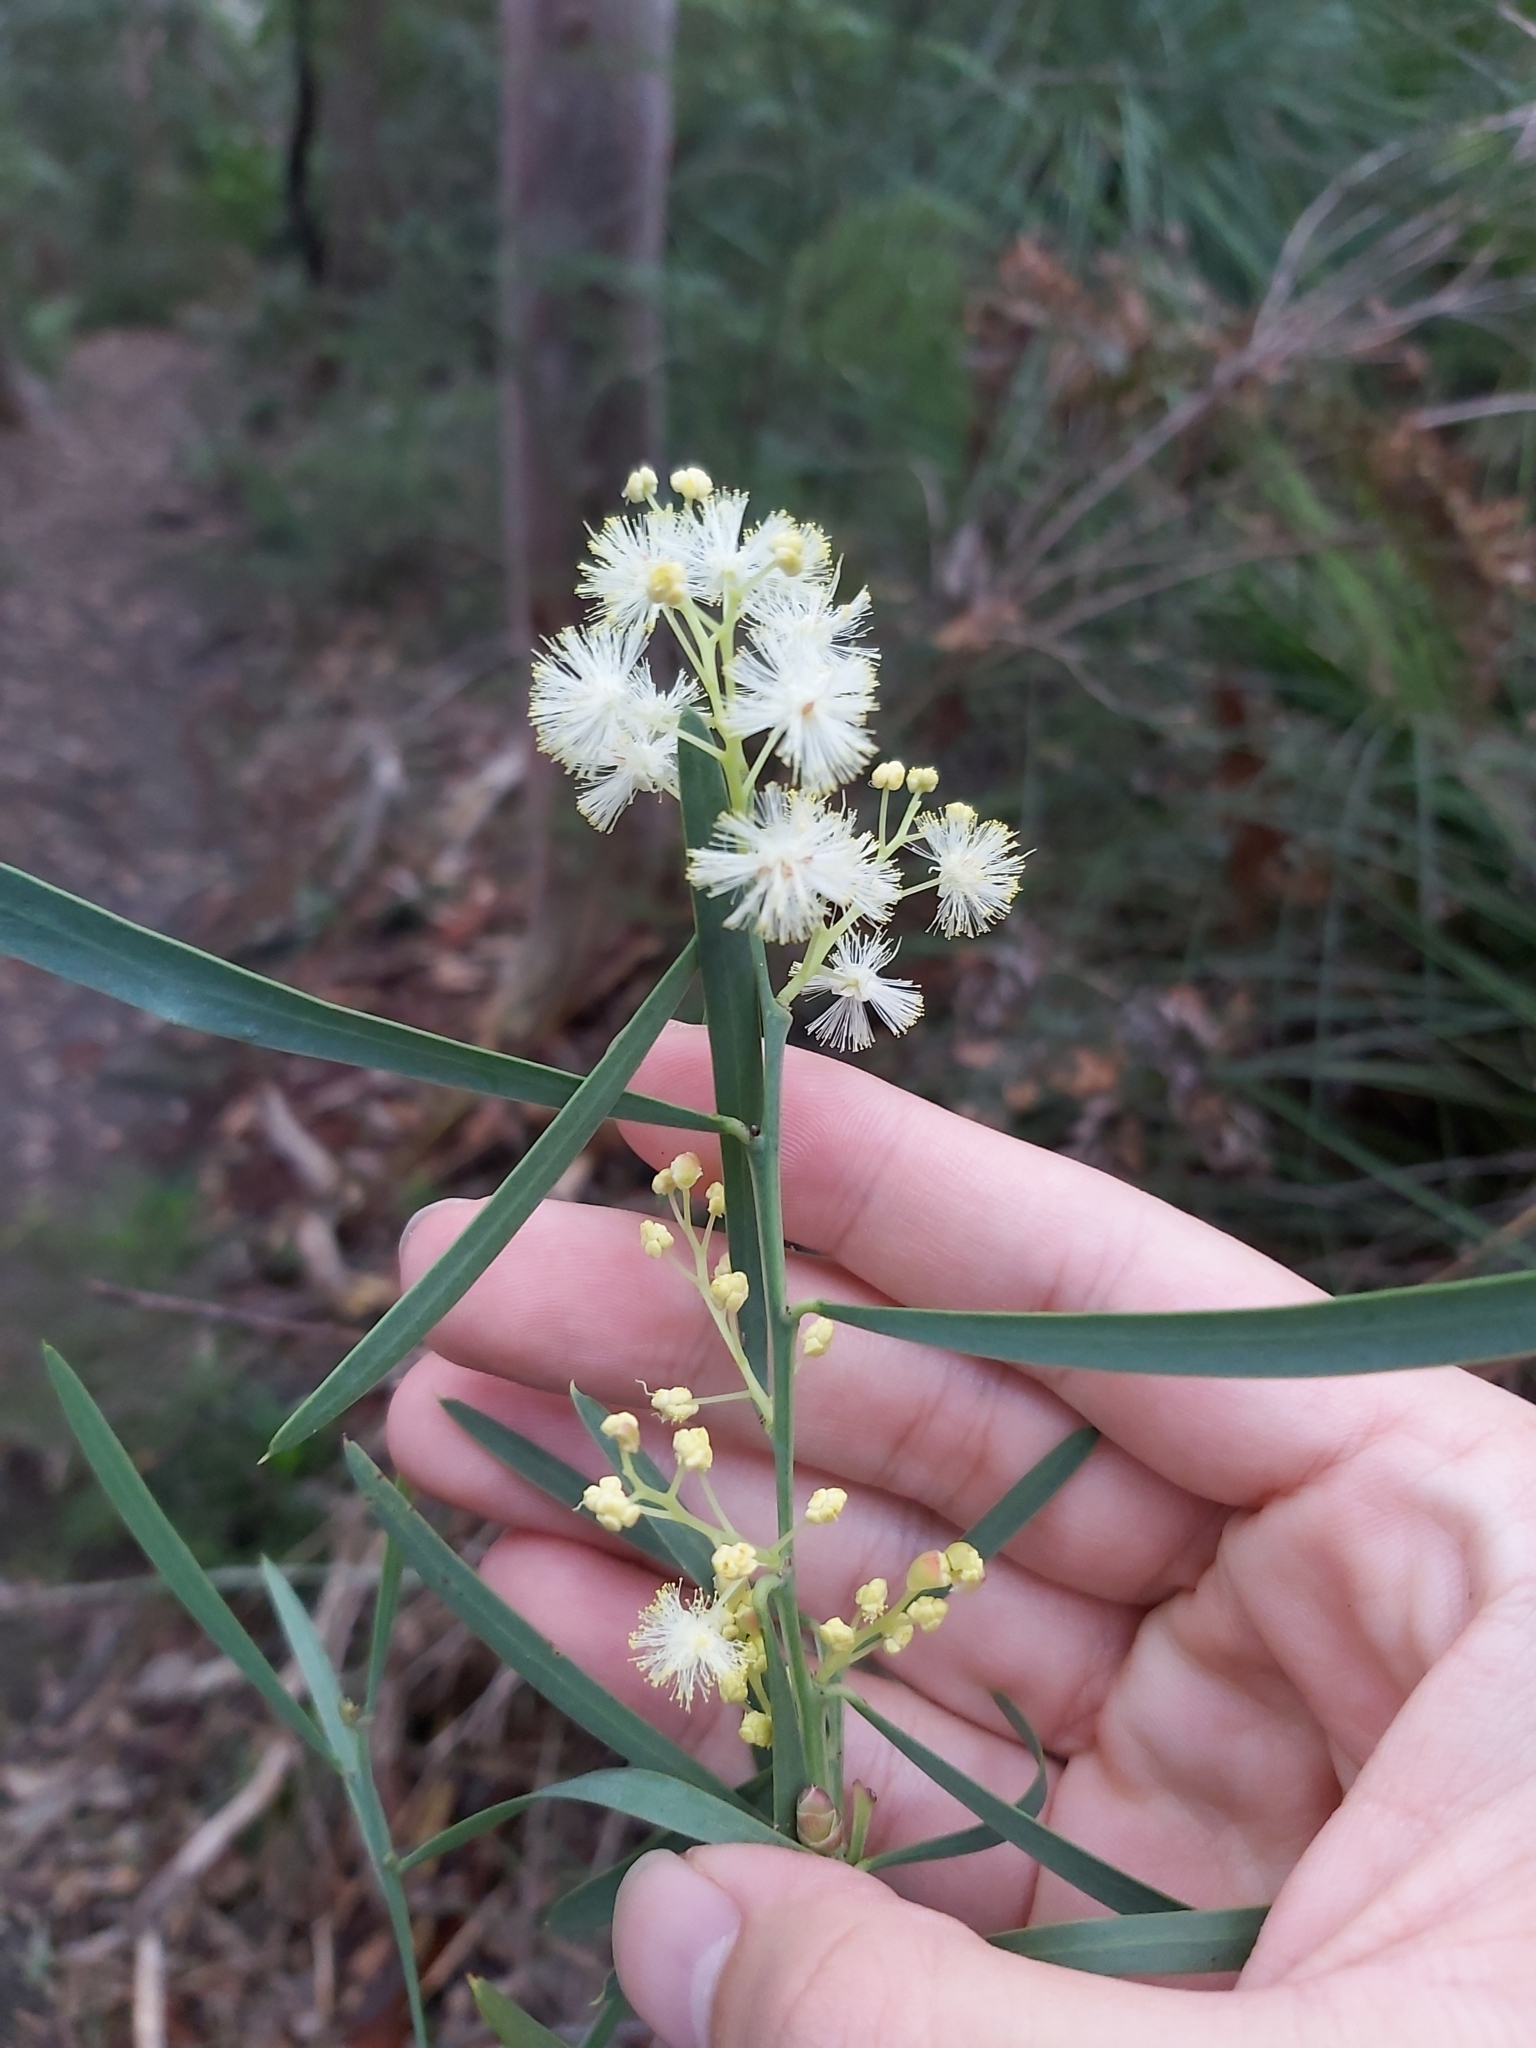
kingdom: Plantae
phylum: Tracheophyta
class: Magnoliopsida
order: Fabales
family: Fabaceae
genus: Acacia
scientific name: Acacia suaveolens
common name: Sweet acacia
